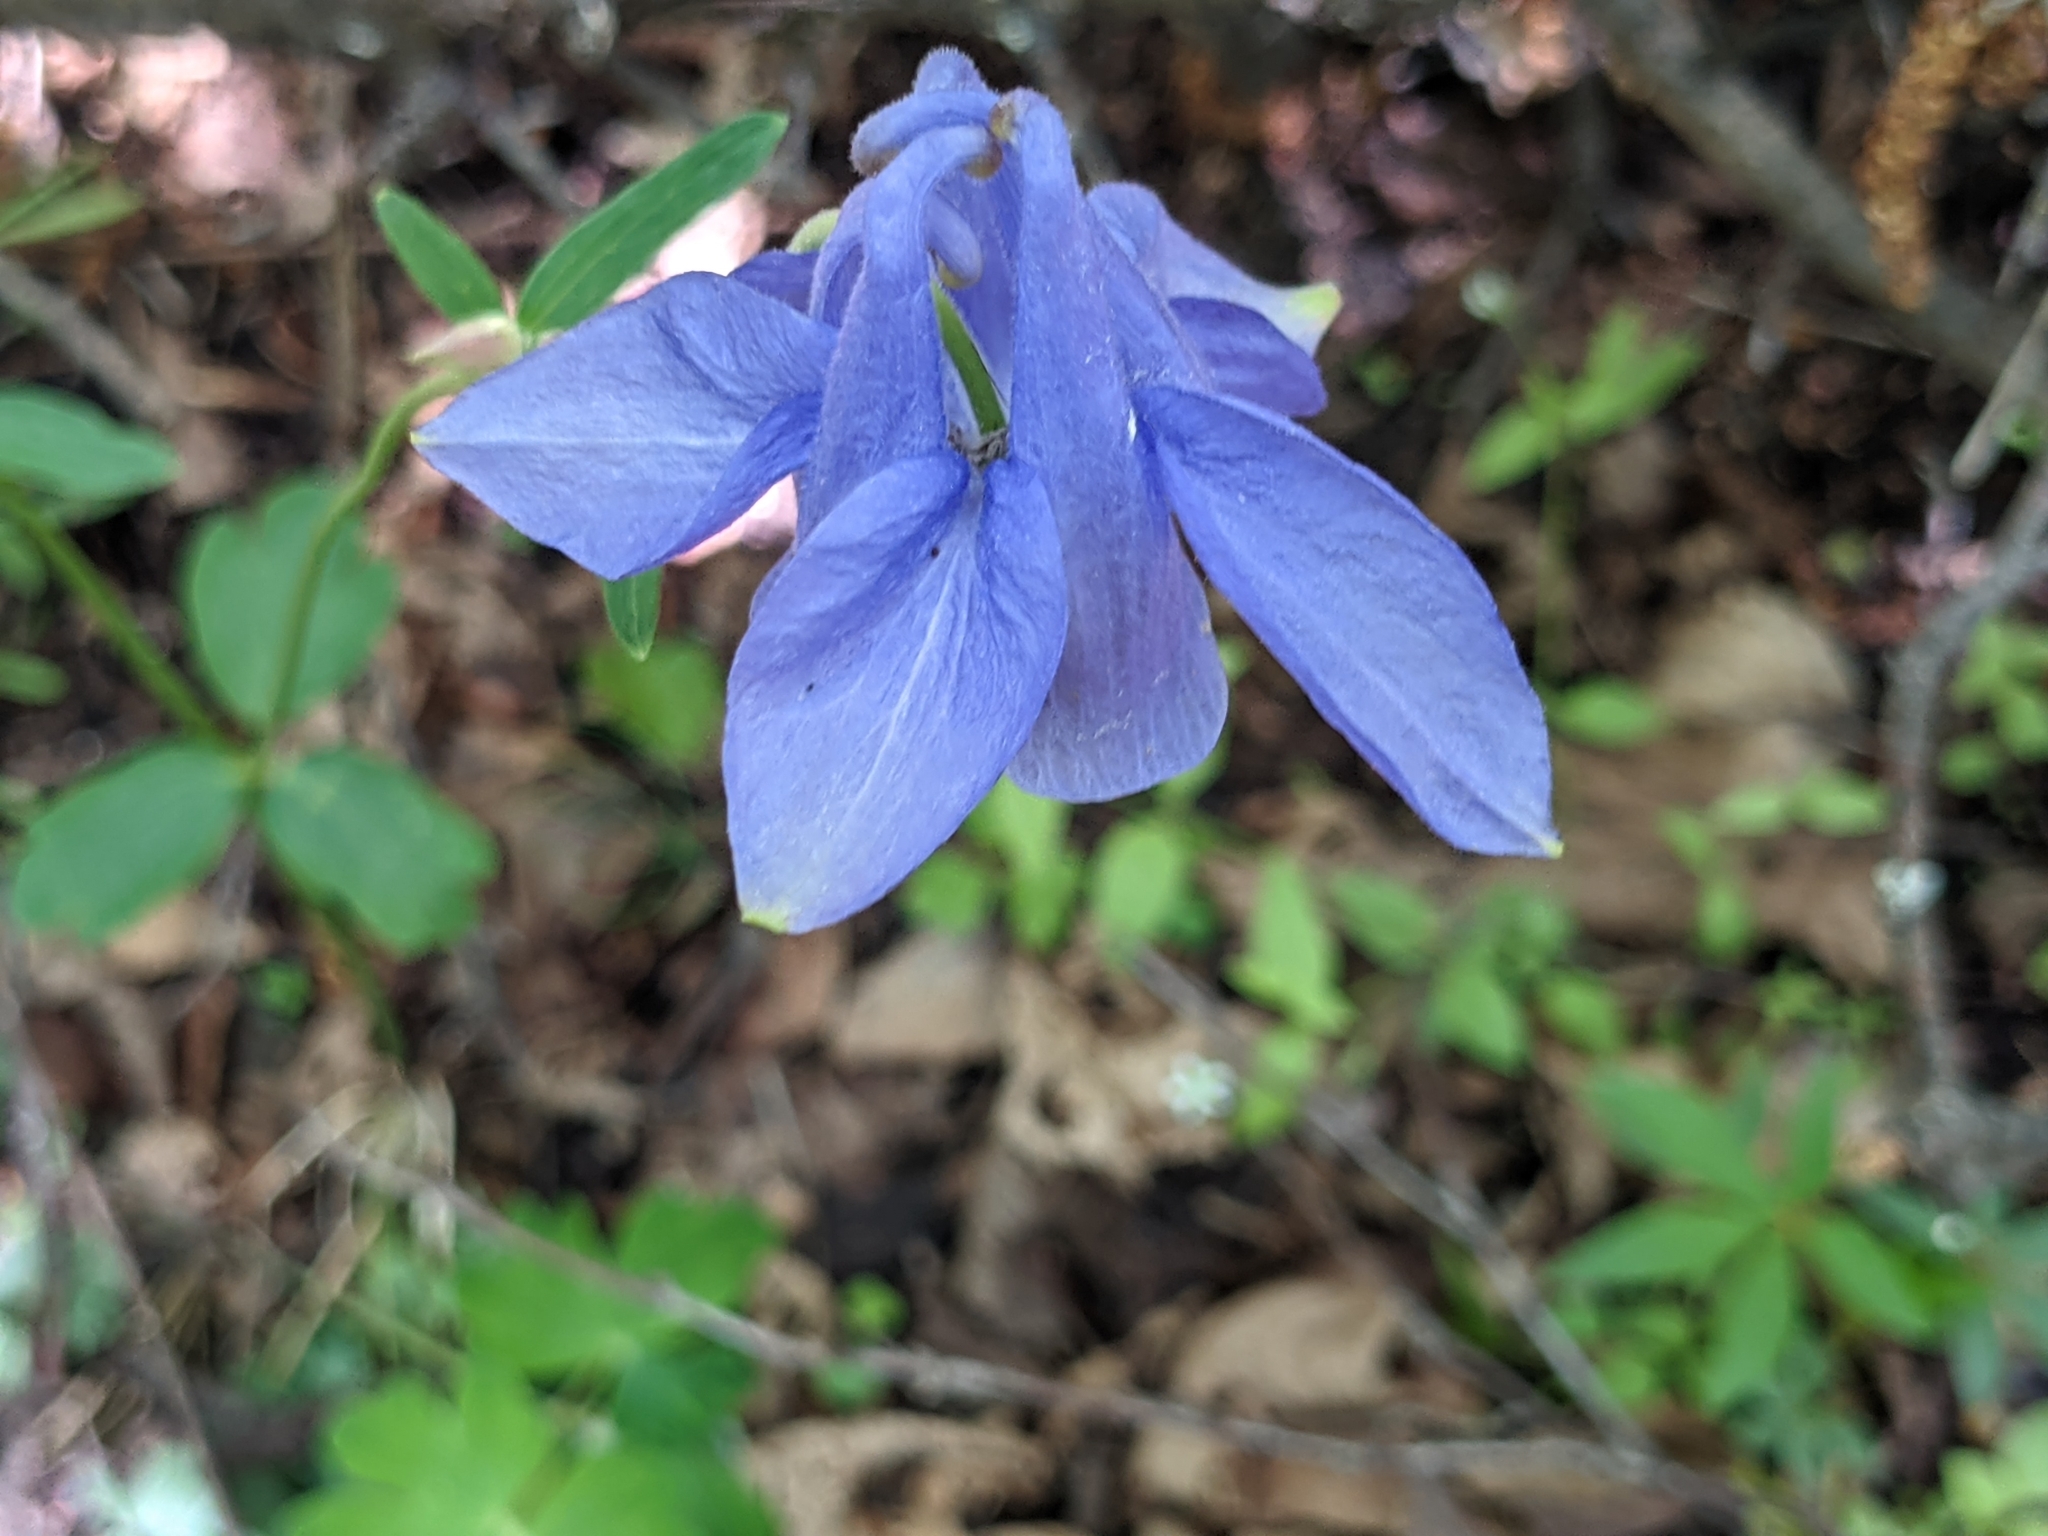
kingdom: Plantae
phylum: Tracheophyta
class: Magnoliopsida
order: Ranunculales
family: Ranunculaceae
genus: Aquilegia
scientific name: Aquilegia vulgaris
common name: Columbine
